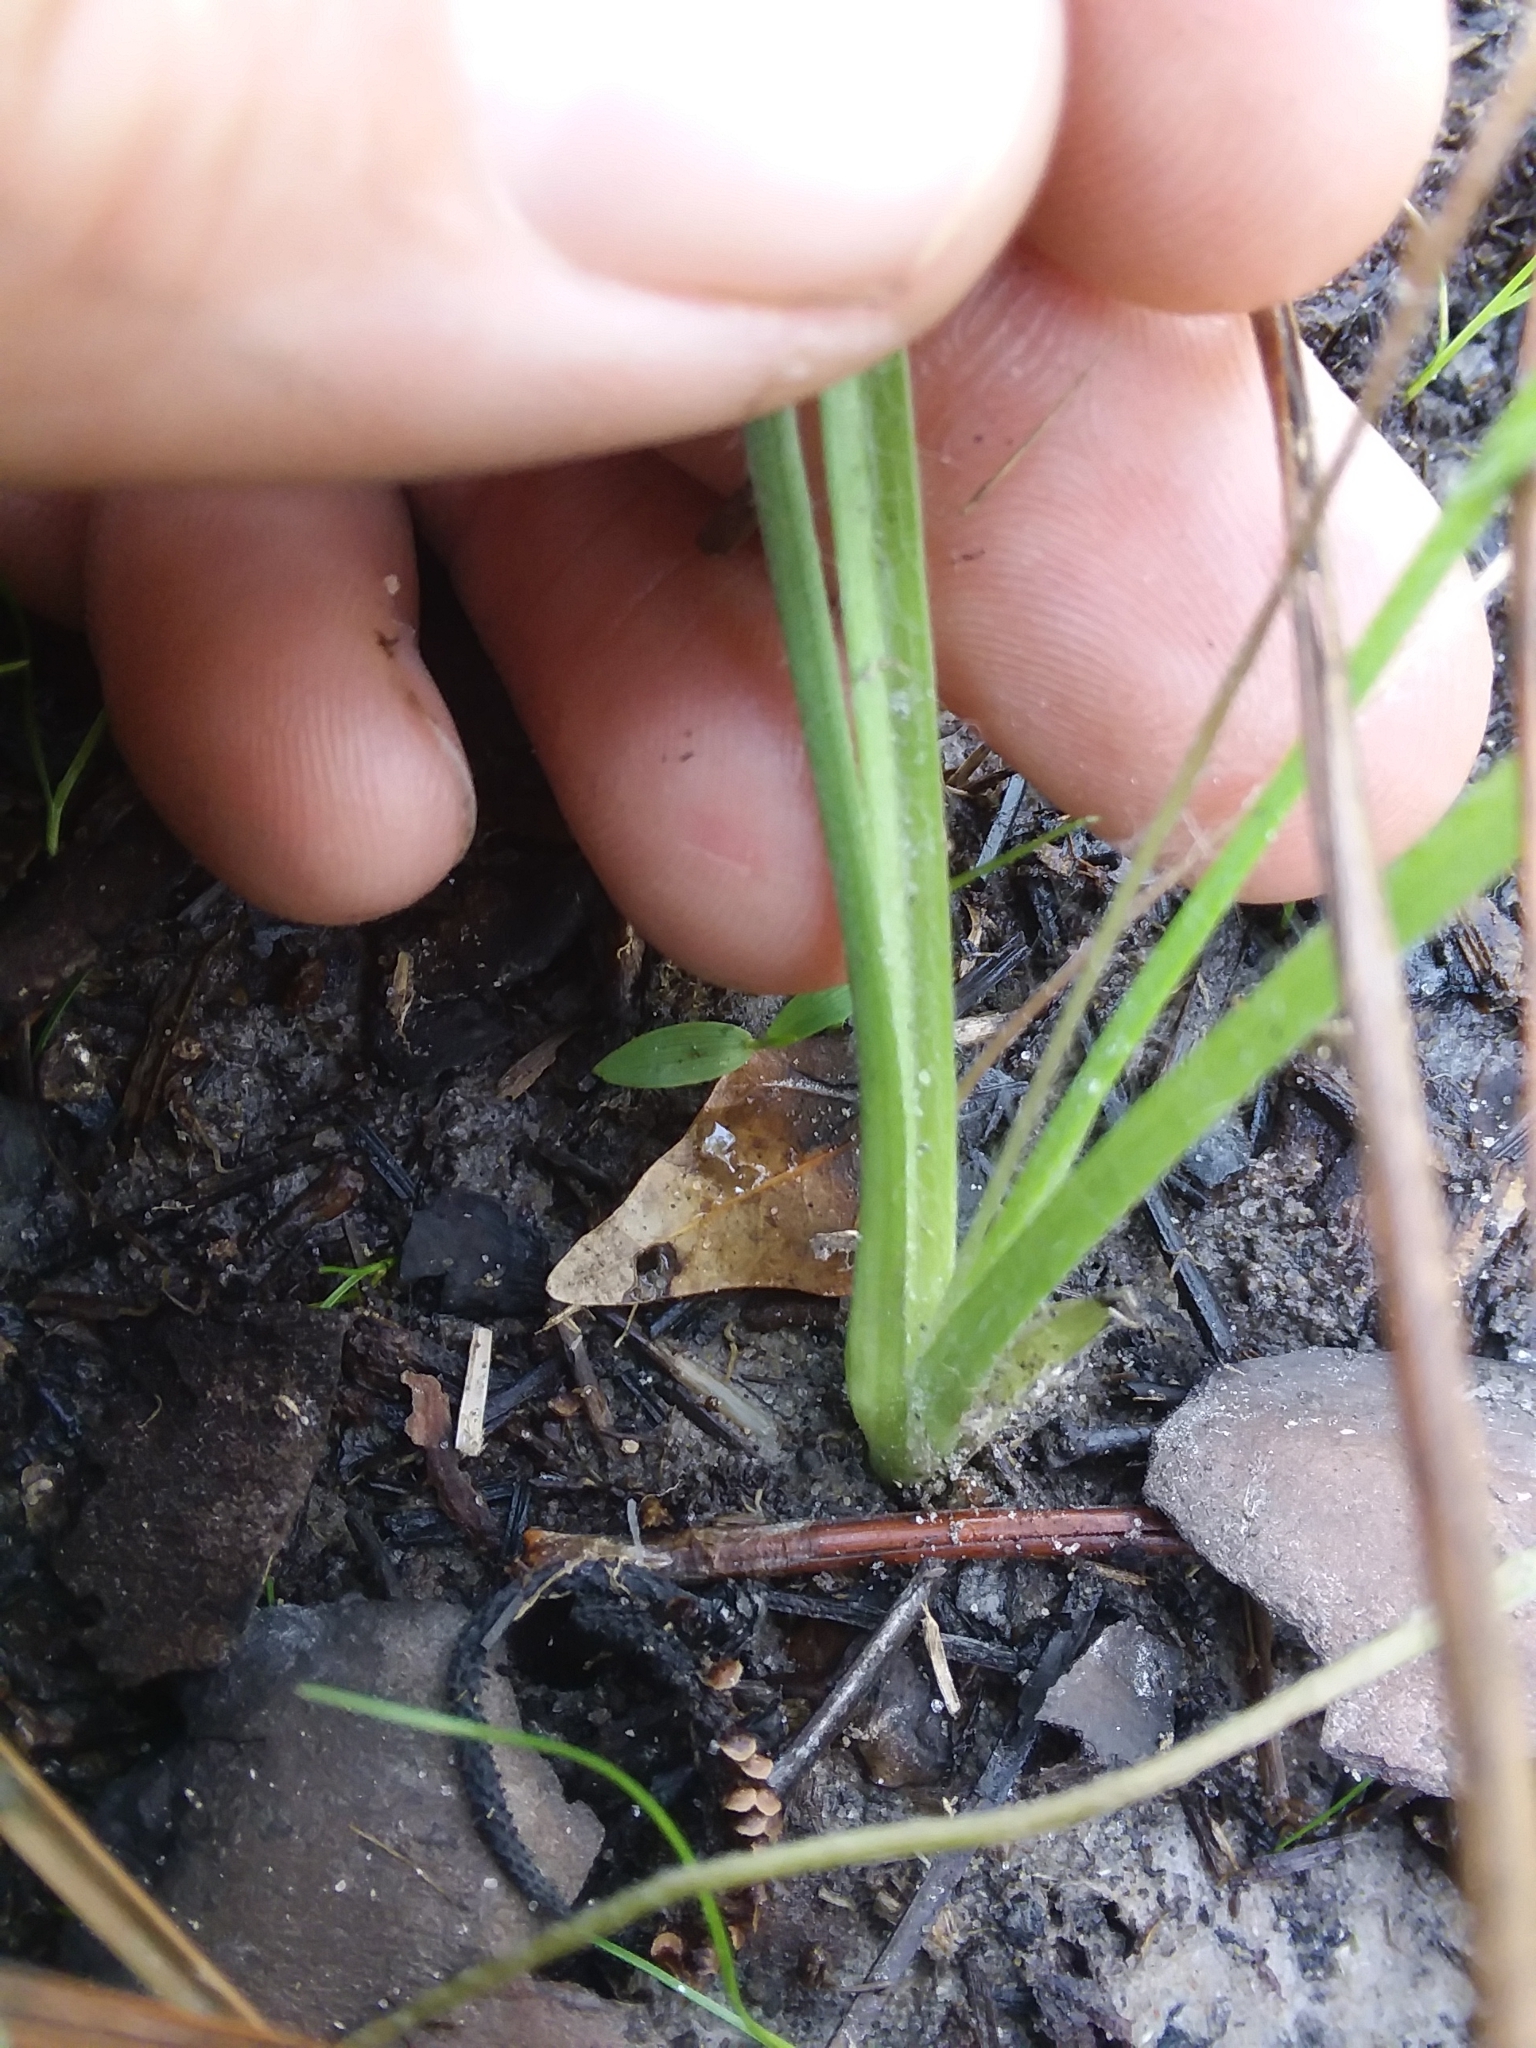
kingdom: Plantae
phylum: Tracheophyta
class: Liliopsida
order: Asparagales
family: Hypoxidaceae
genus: Hypoxis
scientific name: Hypoxis hirsuta
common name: Common goldstar
